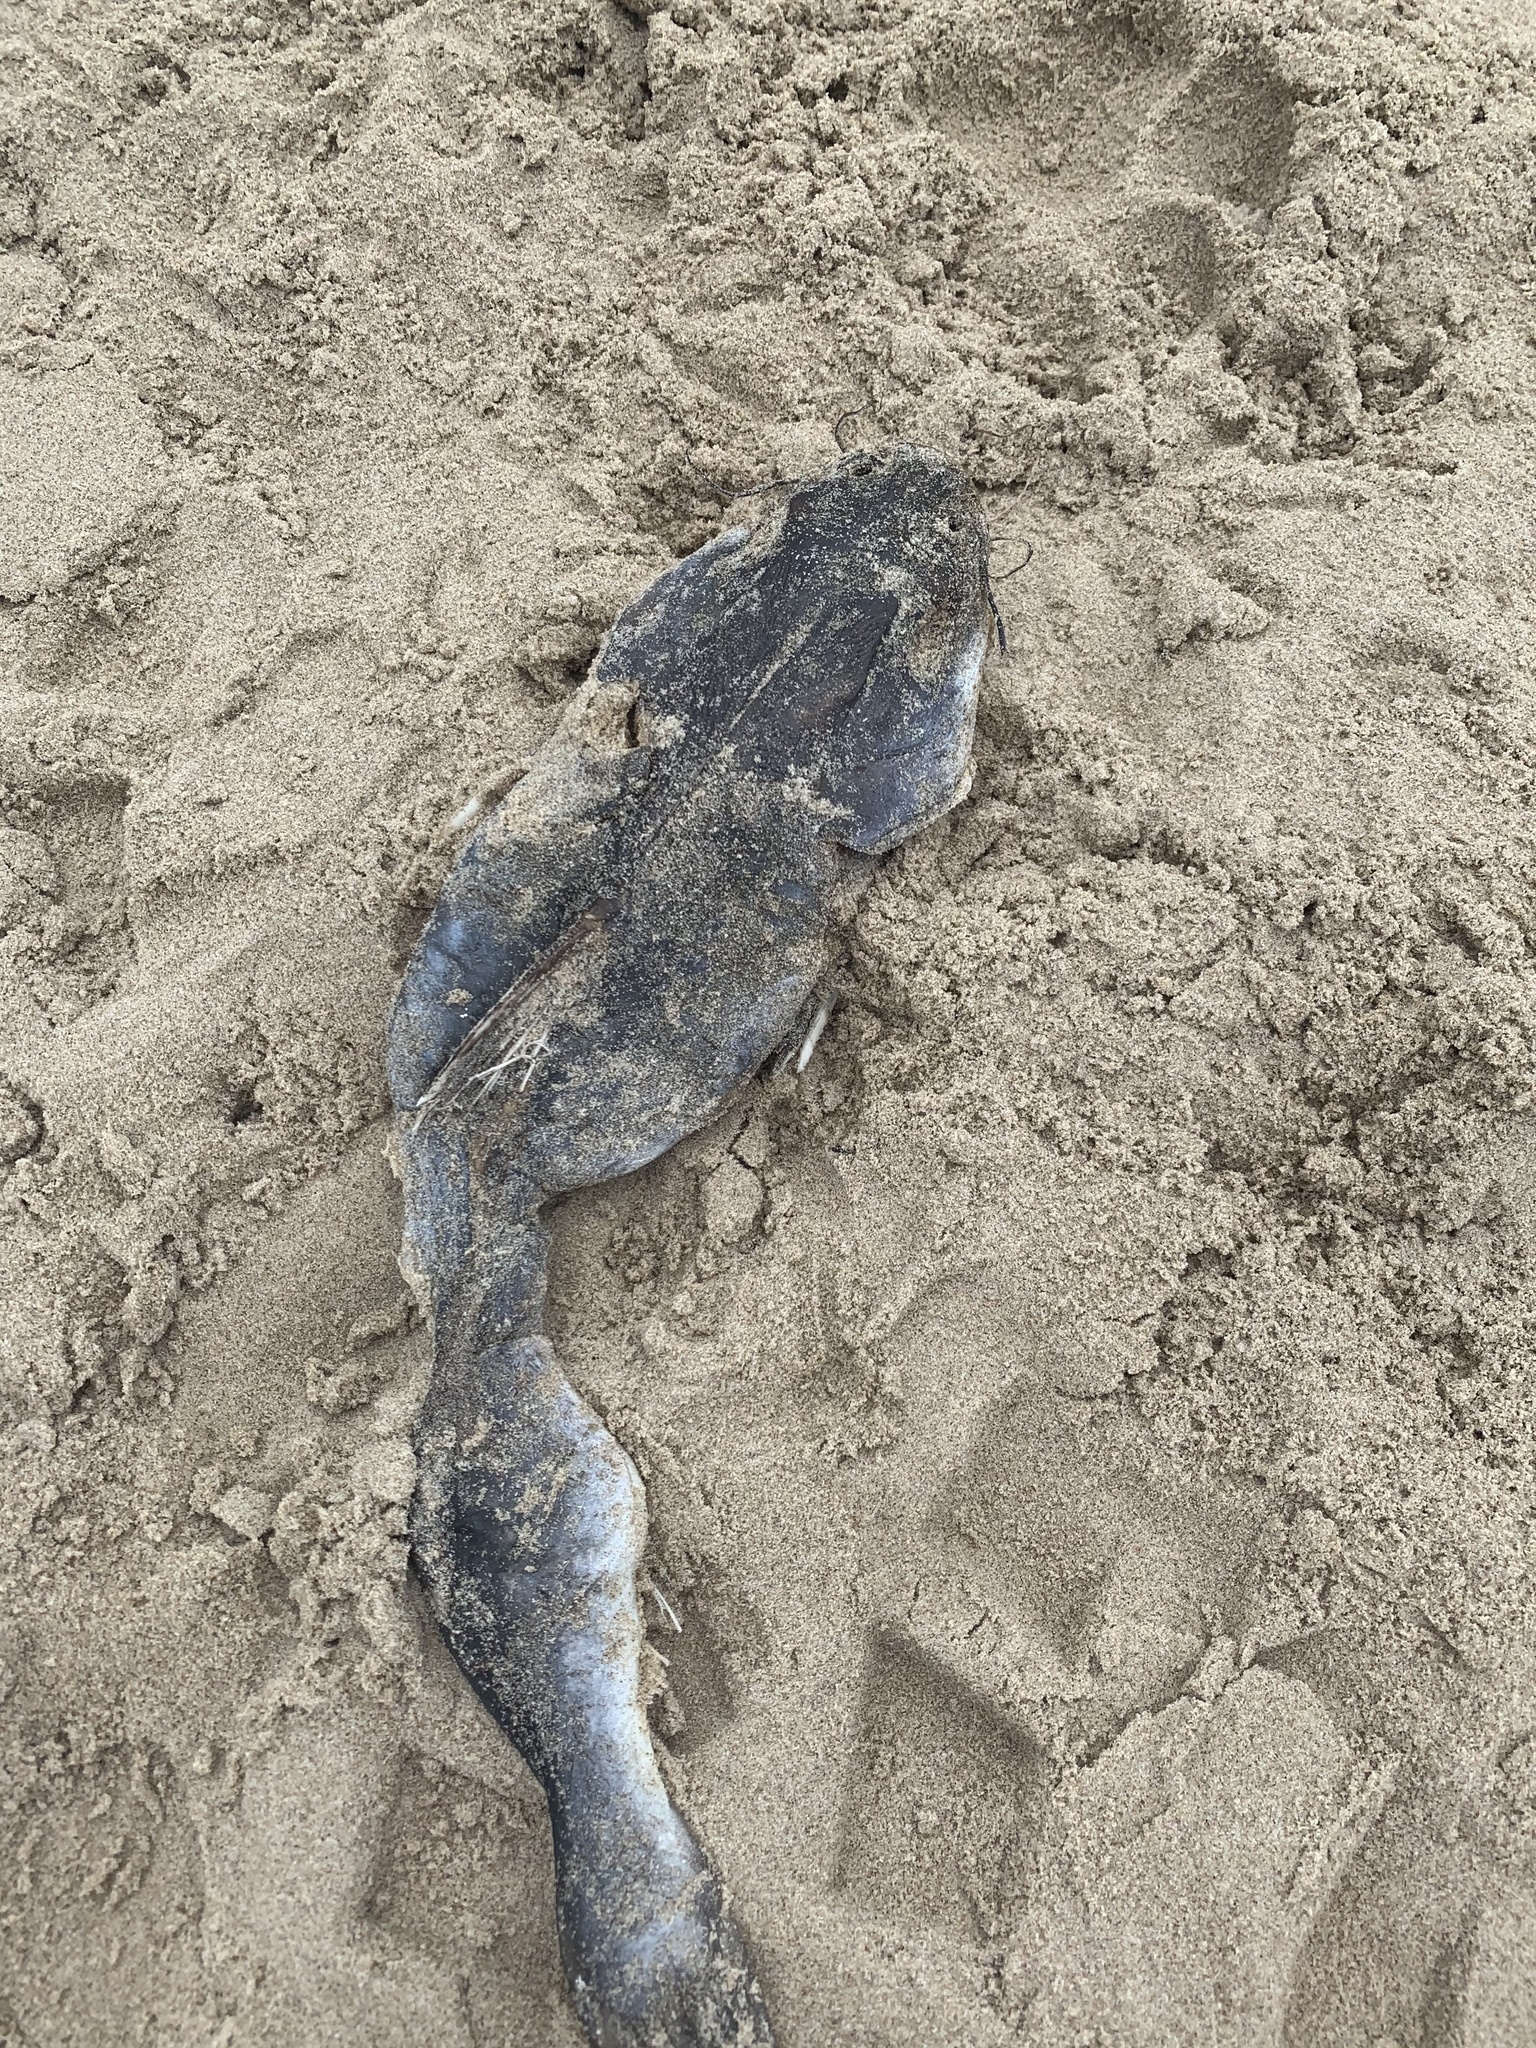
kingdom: Animalia
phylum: Chordata
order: Siluriformes
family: Ariidae
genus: Ariopsis
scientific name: Ariopsis felis
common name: Hardhead catfish
